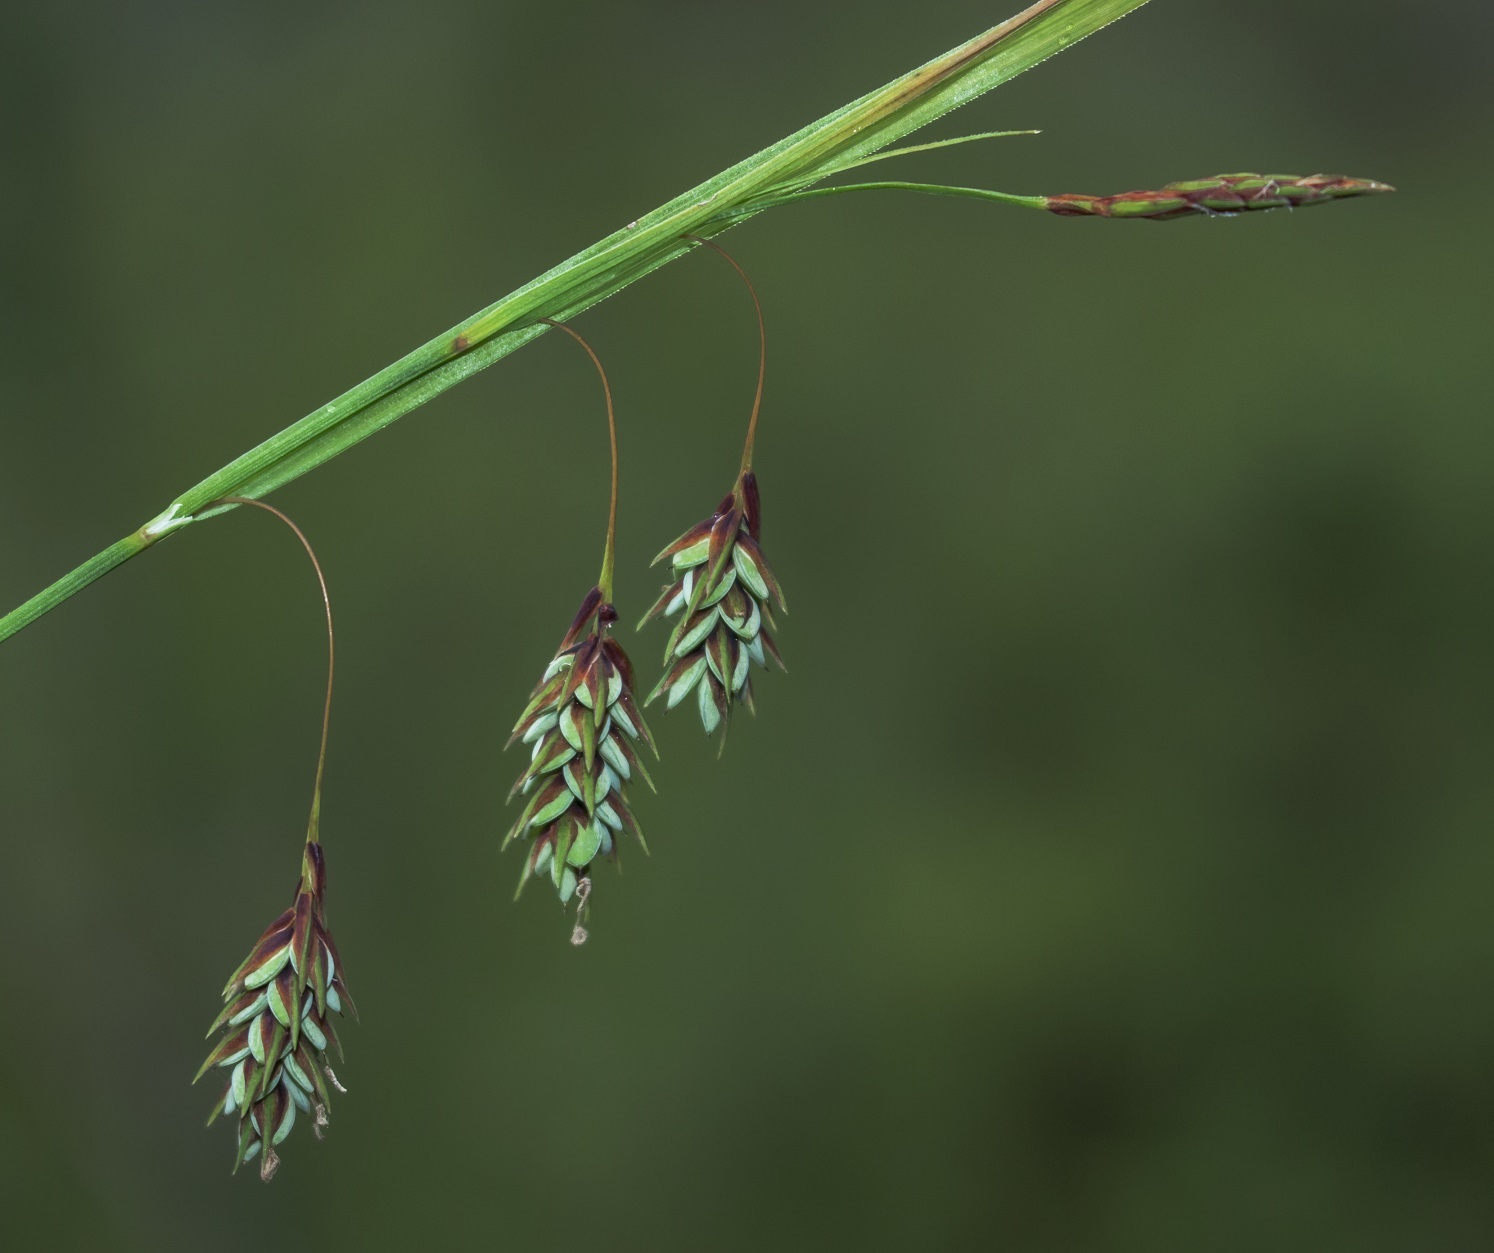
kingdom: Plantae
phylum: Tracheophyta
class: Liliopsida
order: Poales
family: Cyperaceae
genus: Carex
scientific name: Carex magellanica
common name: Bog sedge
